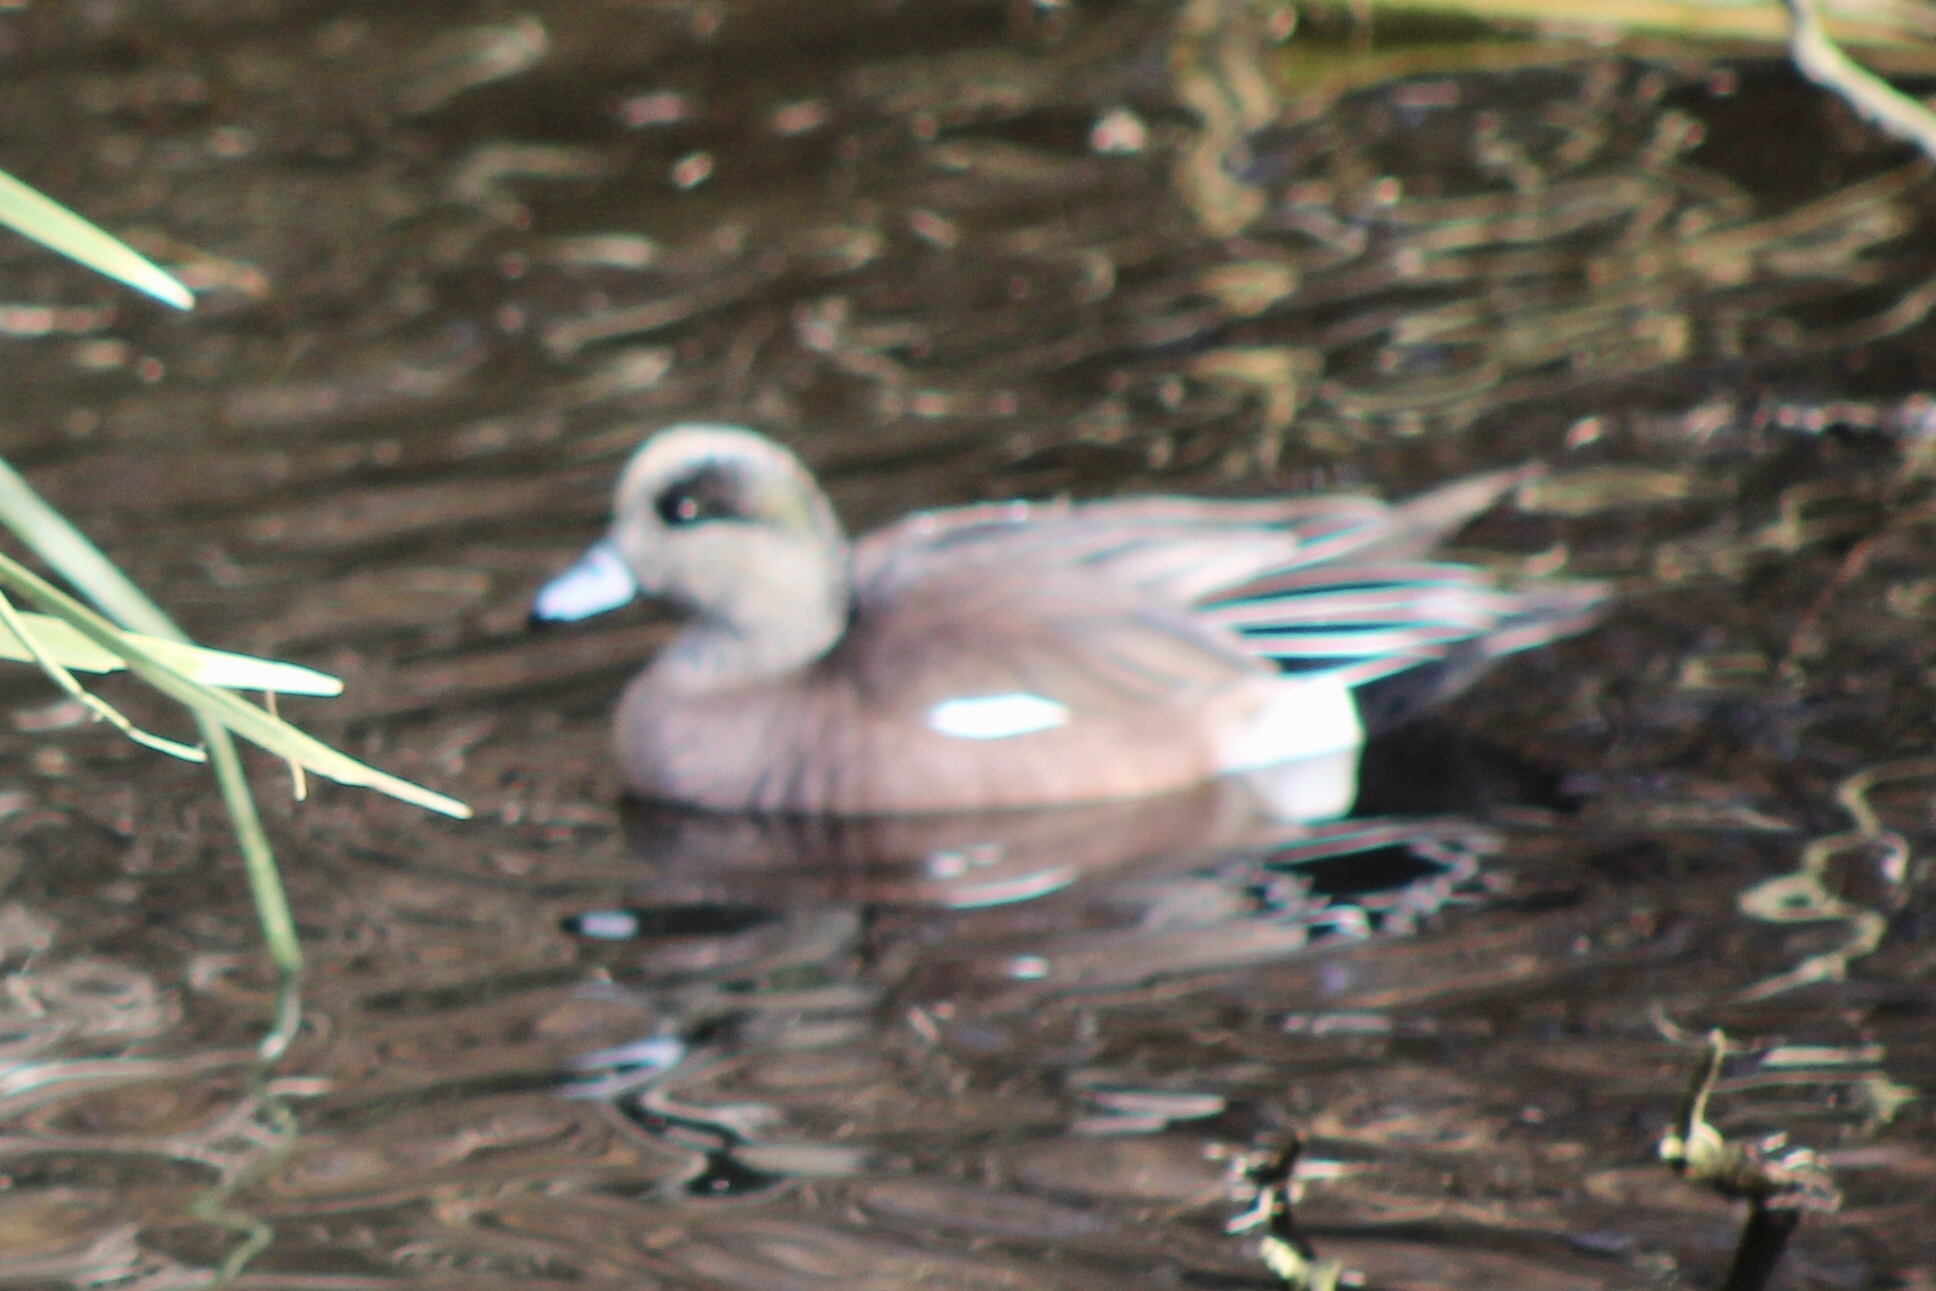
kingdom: Animalia
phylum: Chordata
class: Aves
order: Anseriformes
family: Anatidae
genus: Mareca
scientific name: Mareca americana
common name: American wigeon
